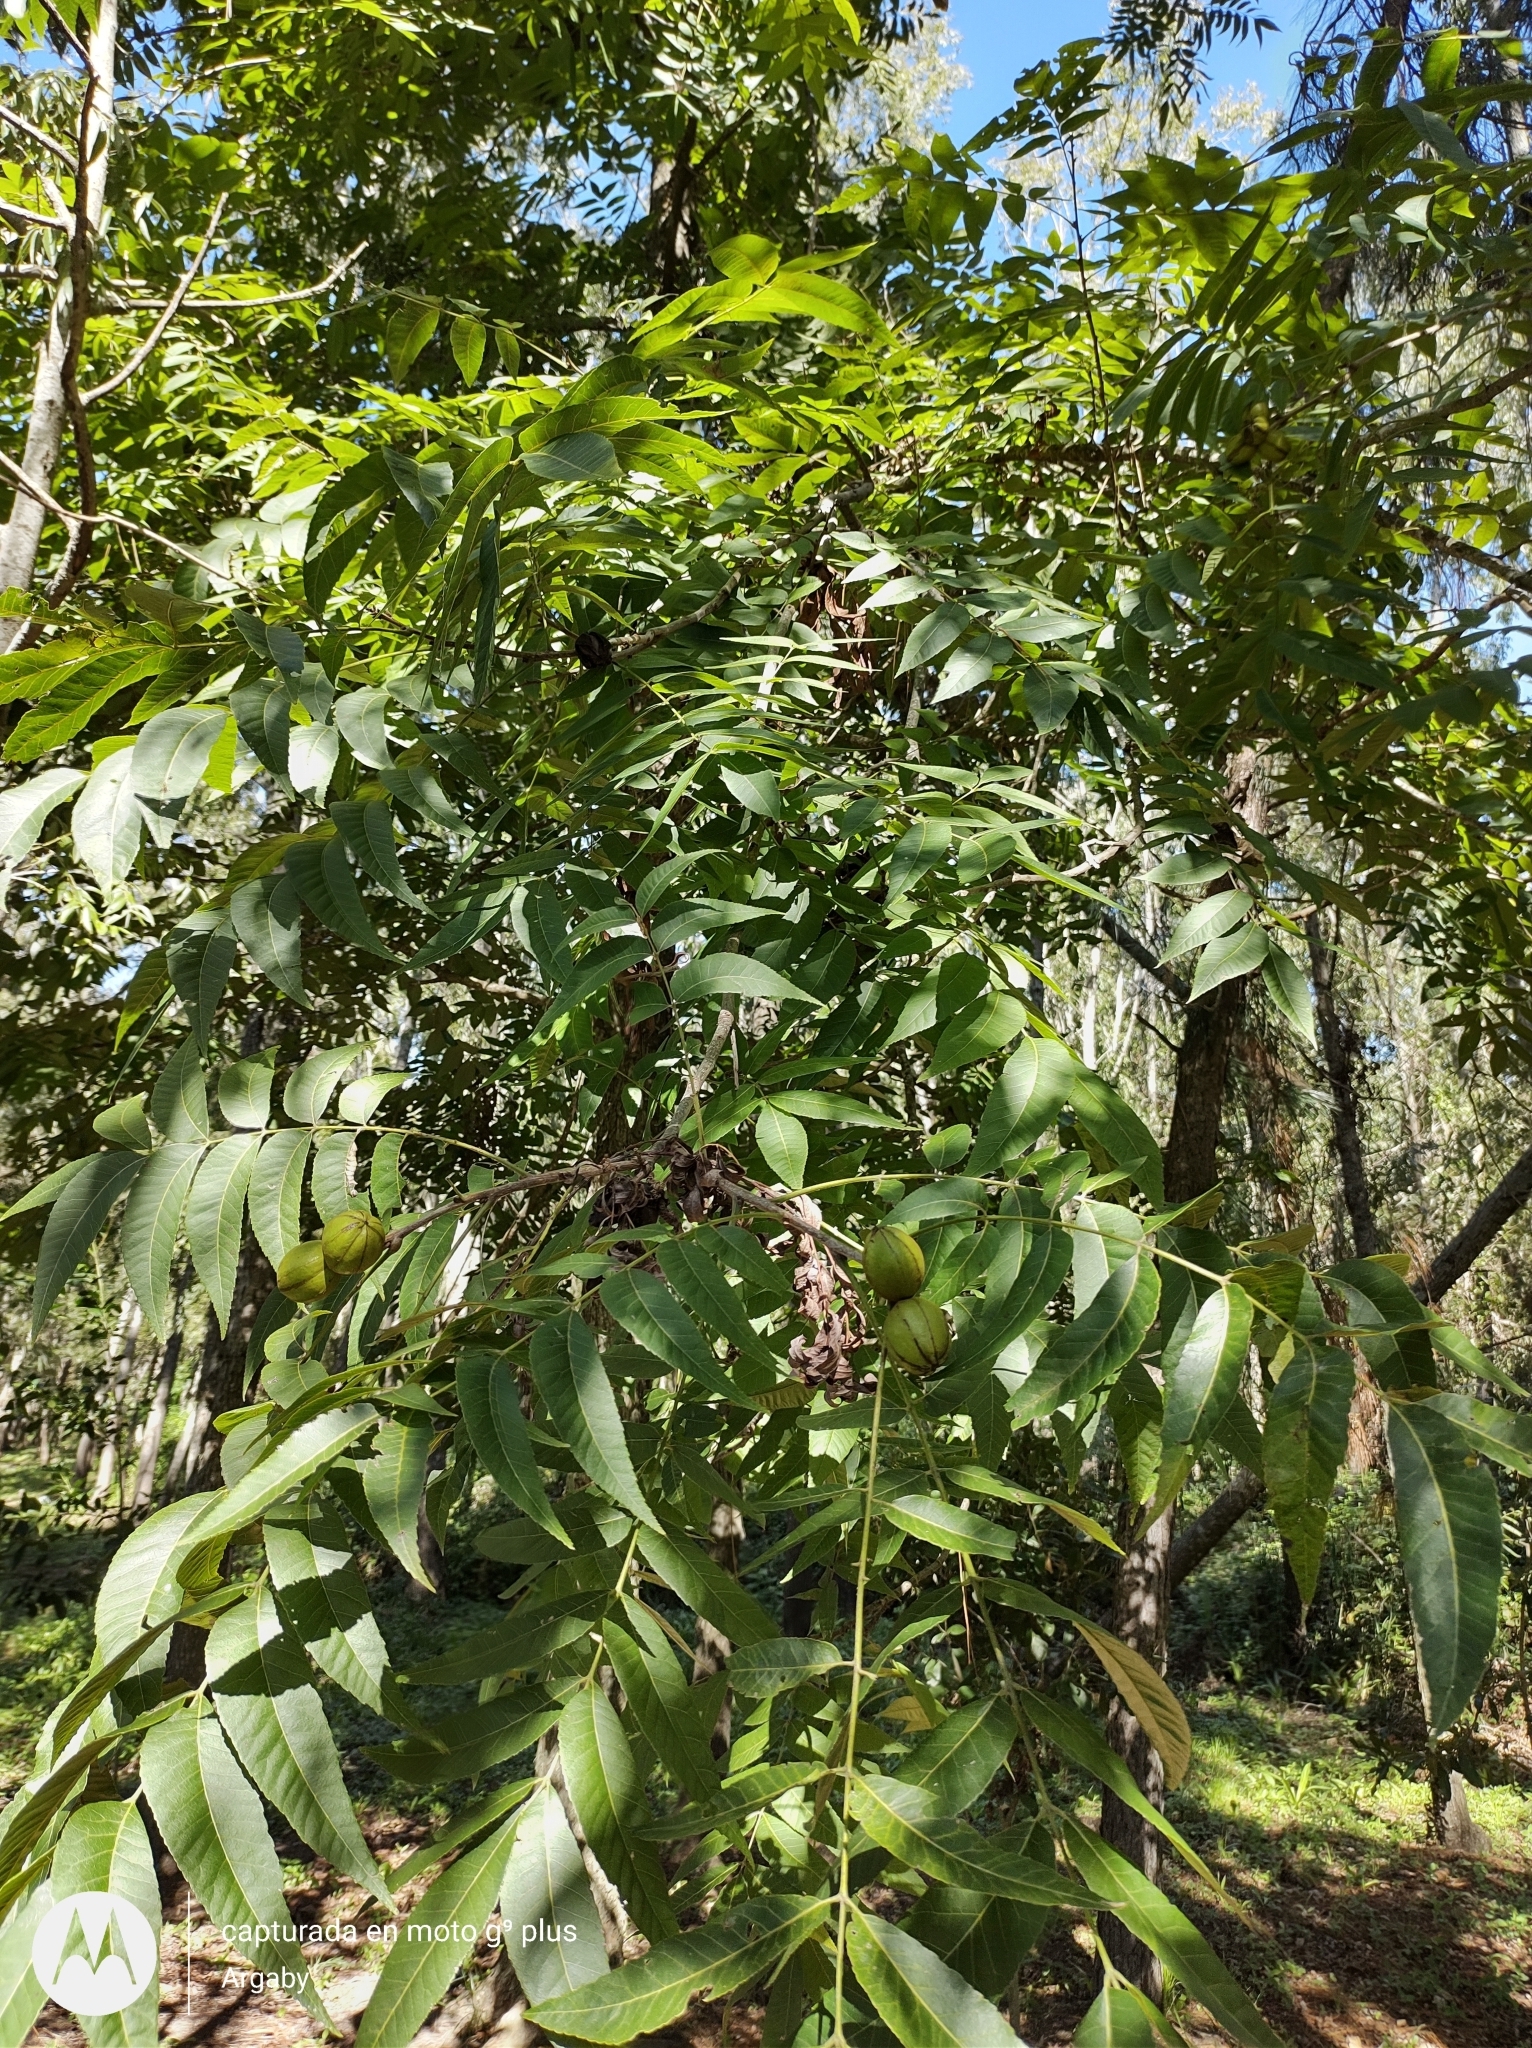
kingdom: Plantae
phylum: Tracheophyta
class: Magnoliopsida
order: Fagales
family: Juglandaceae
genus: Carya
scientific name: Carya illinoinensis
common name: Pecan
